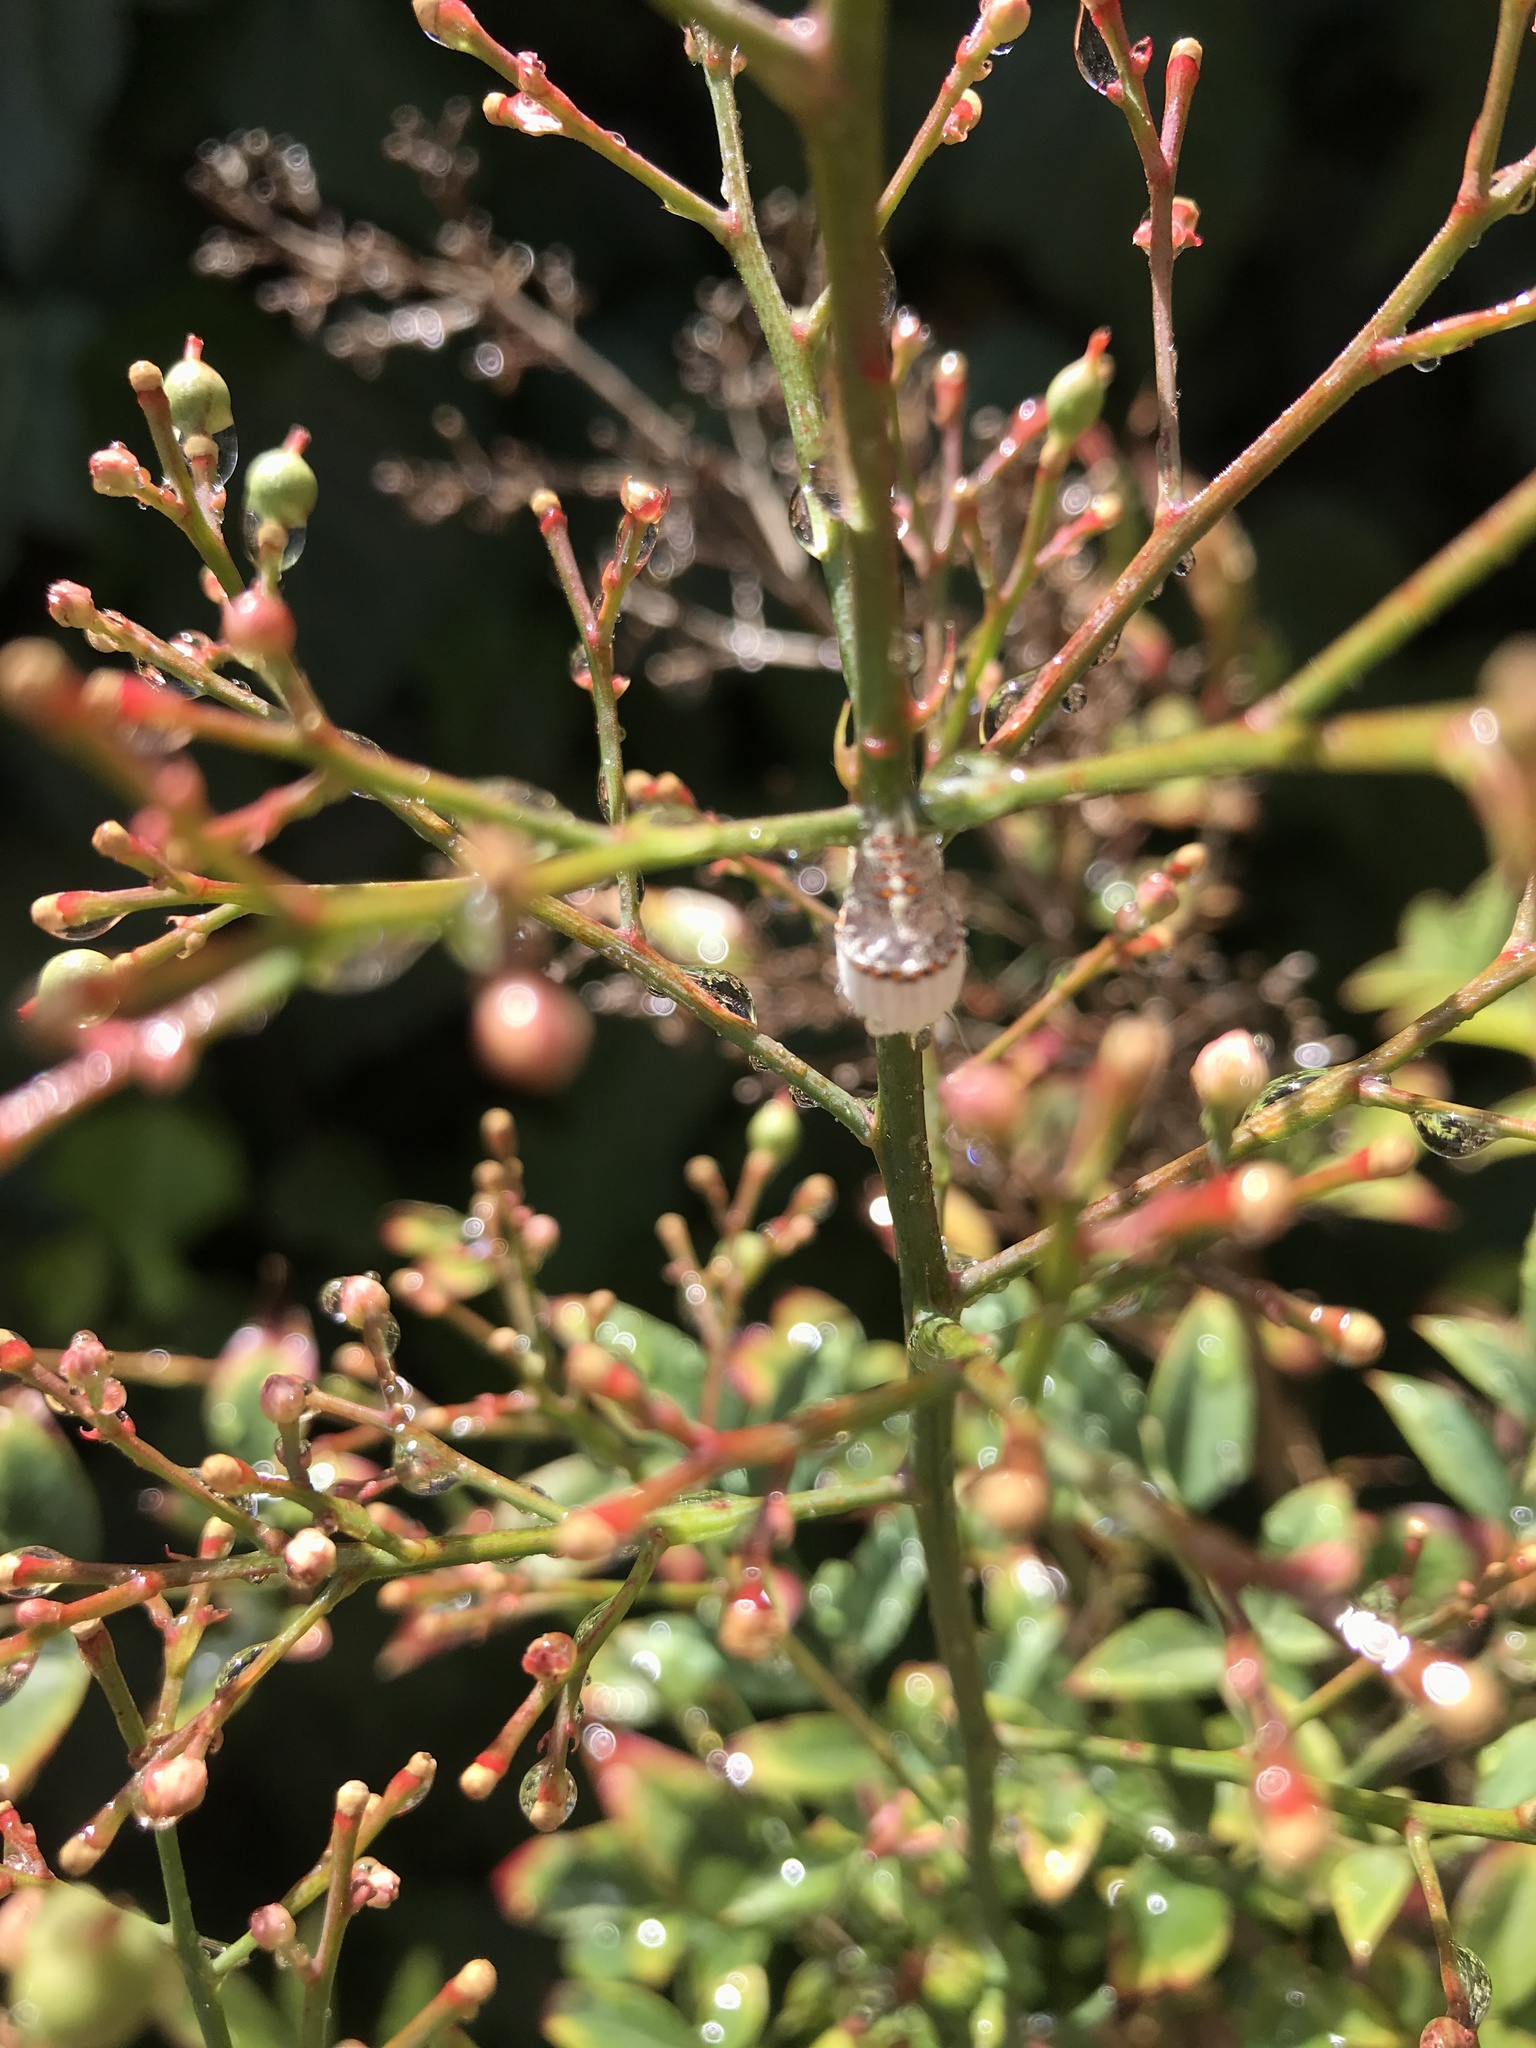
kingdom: Animalia
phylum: Arthropoda
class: Insecta
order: Hemiptera
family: Margarodidae
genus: Icerya
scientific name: Icerya purchasi
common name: Cottony cushion scale
